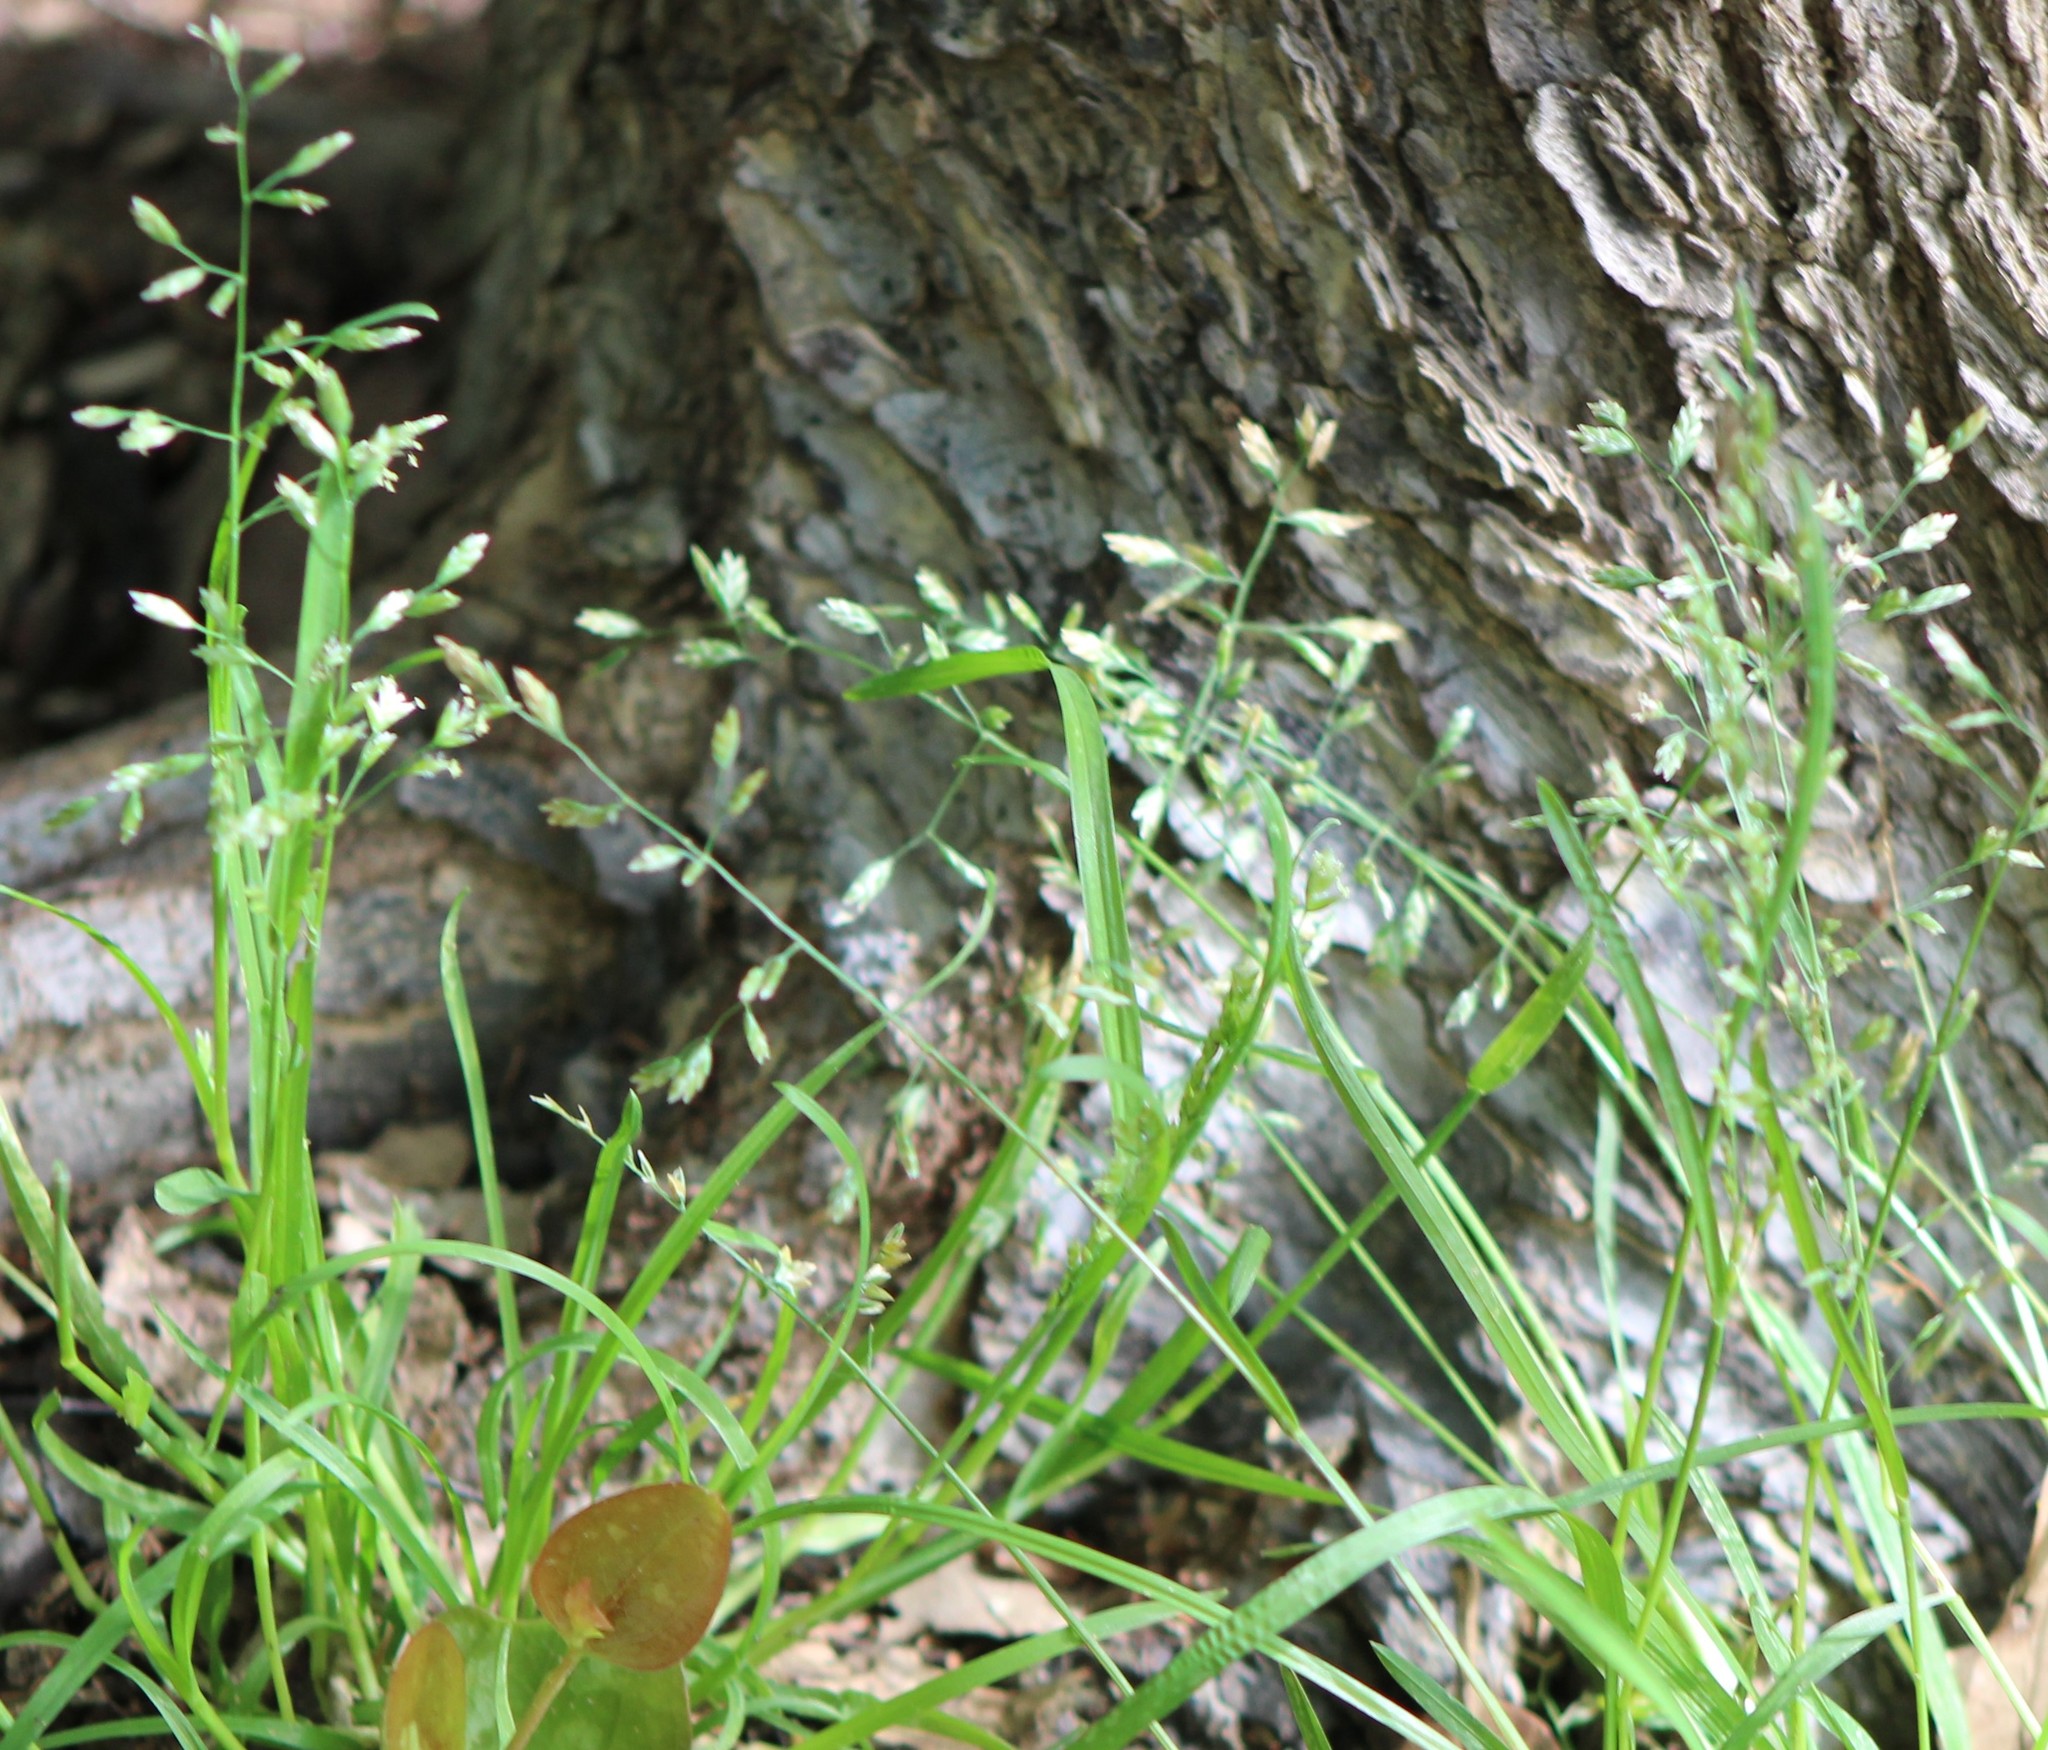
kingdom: Plantae
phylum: Tracheophyta
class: Liliopsida
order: Poales
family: Poaceae
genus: Poa
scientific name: Poa annua
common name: Annual bluegrass
